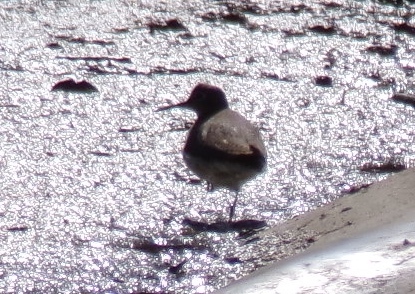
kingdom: Animalia
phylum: Chordata
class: Aves
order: Charadriiformes
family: Scolopacidae
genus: Actitis
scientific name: Actitis macularius
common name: Spotted sandpiper
